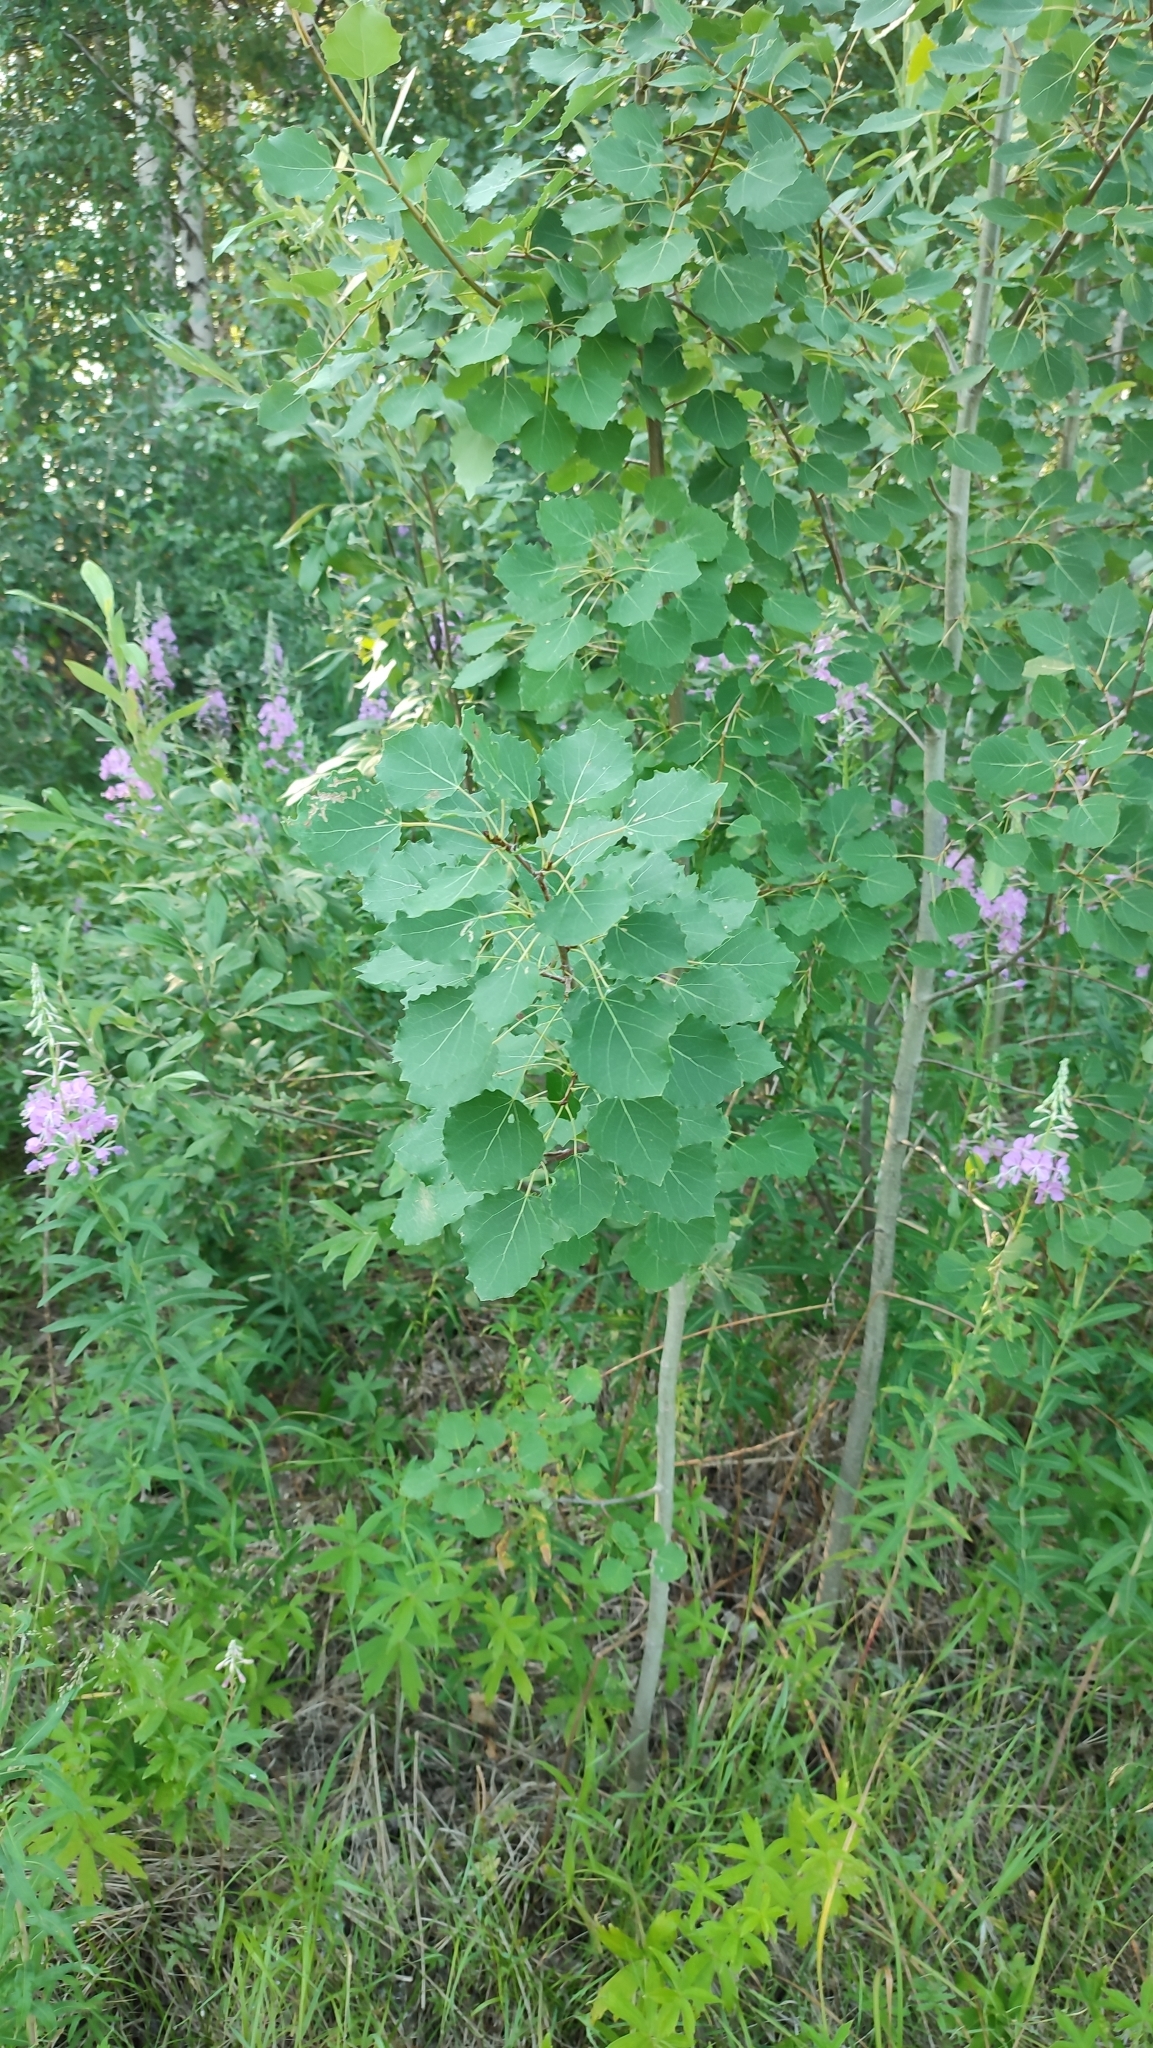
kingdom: Plantae
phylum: Tracheophyta
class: Magnoliopsida
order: Malpighiales
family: Salicaceae
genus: Populus
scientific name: Populus tremula
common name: European aspen
